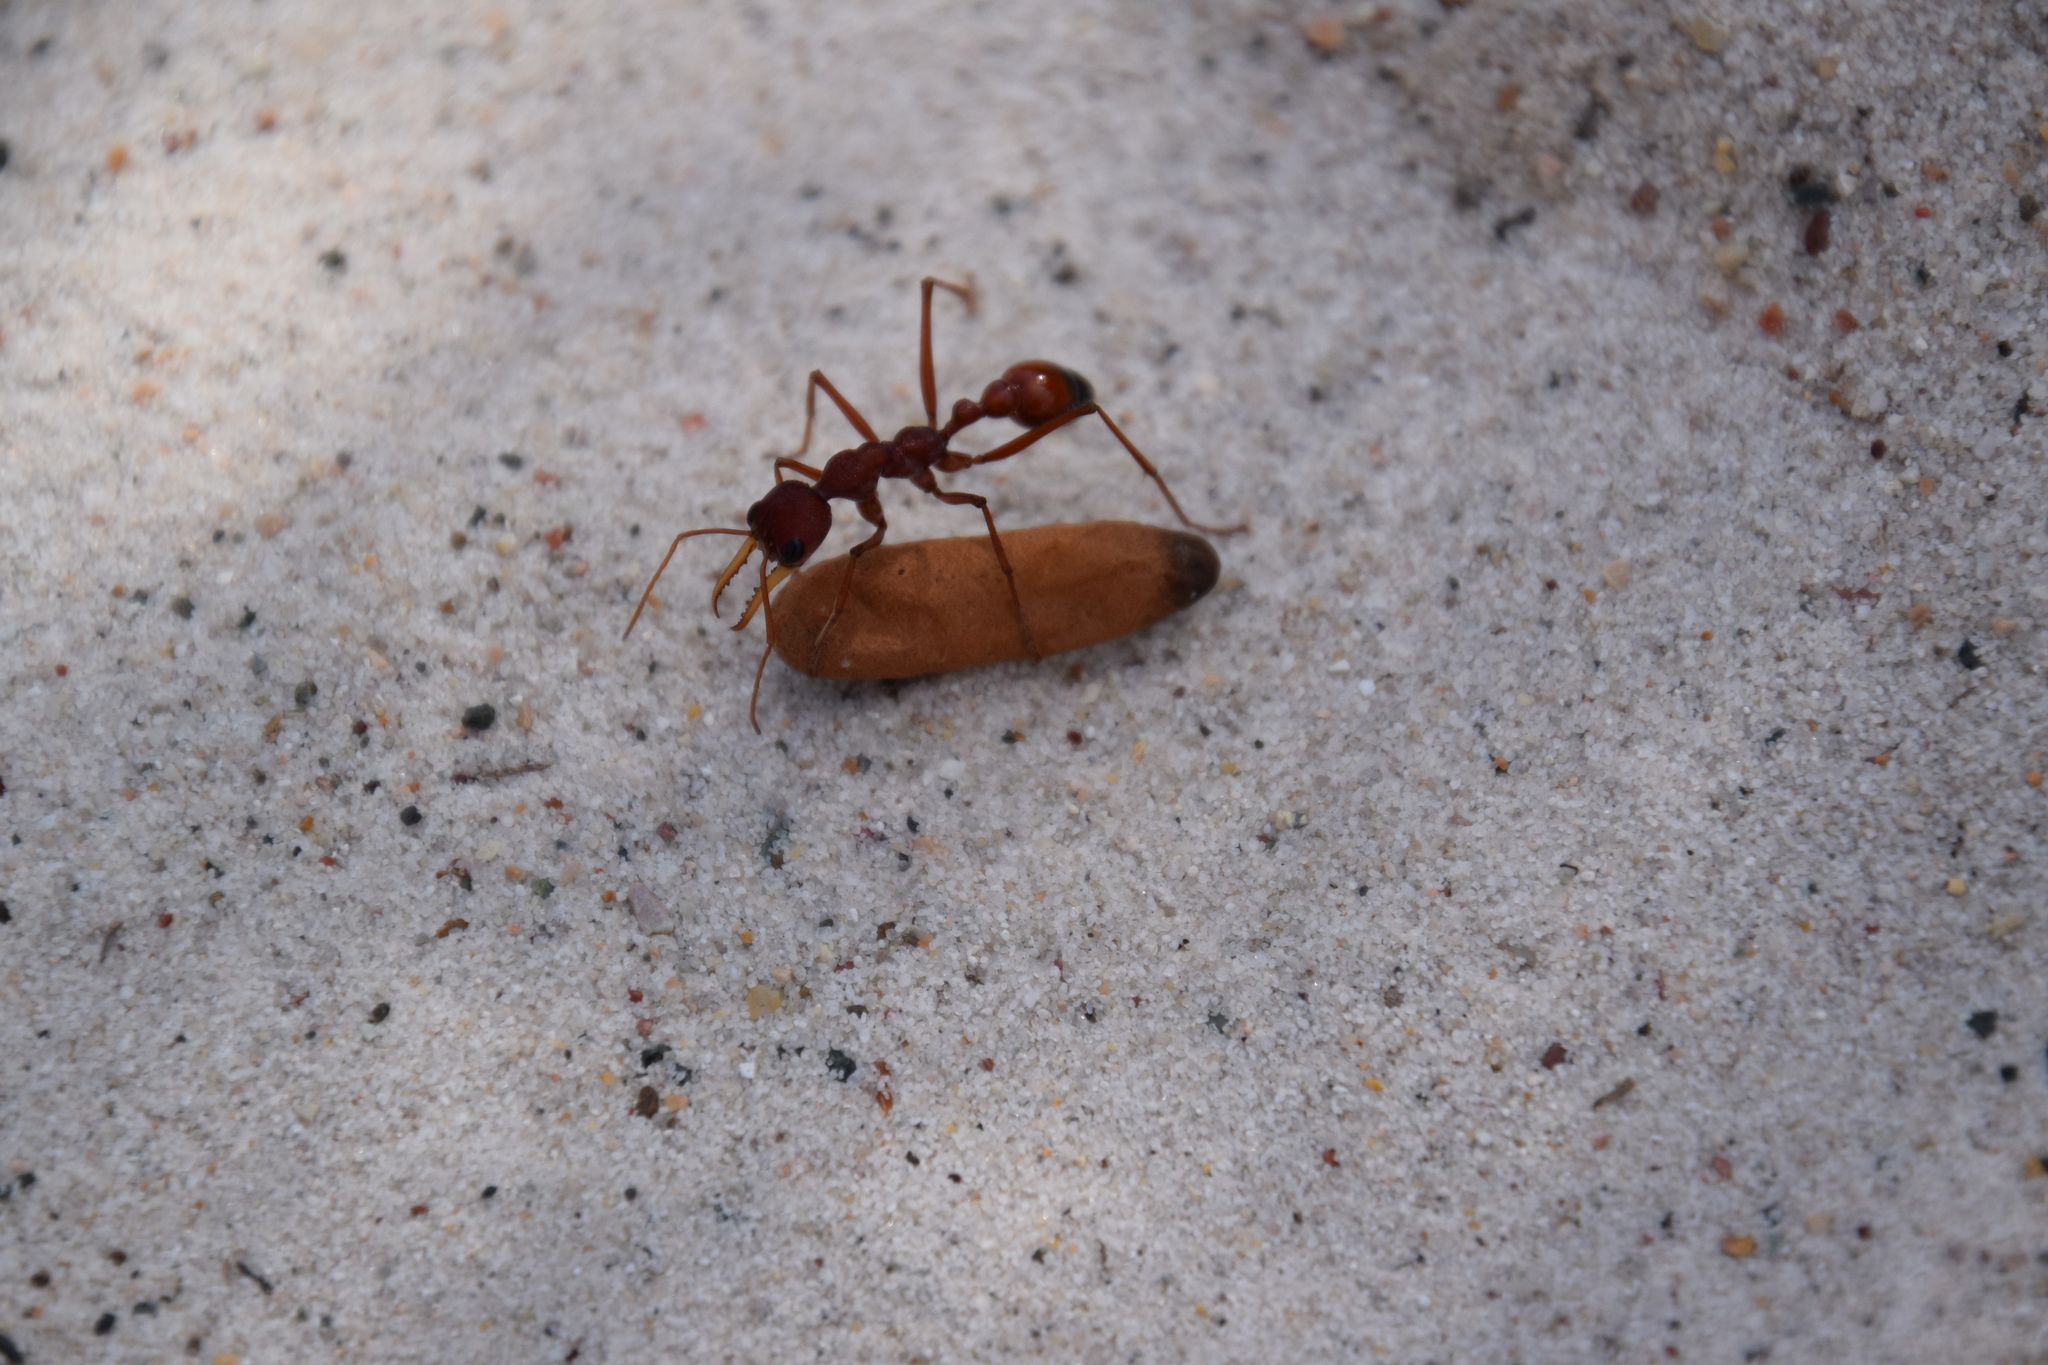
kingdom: Animalia
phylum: Arthropoda
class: Insecta
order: Hymenoptera
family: Formicidae
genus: Myrmecia
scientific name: Myrmecia gulosa
